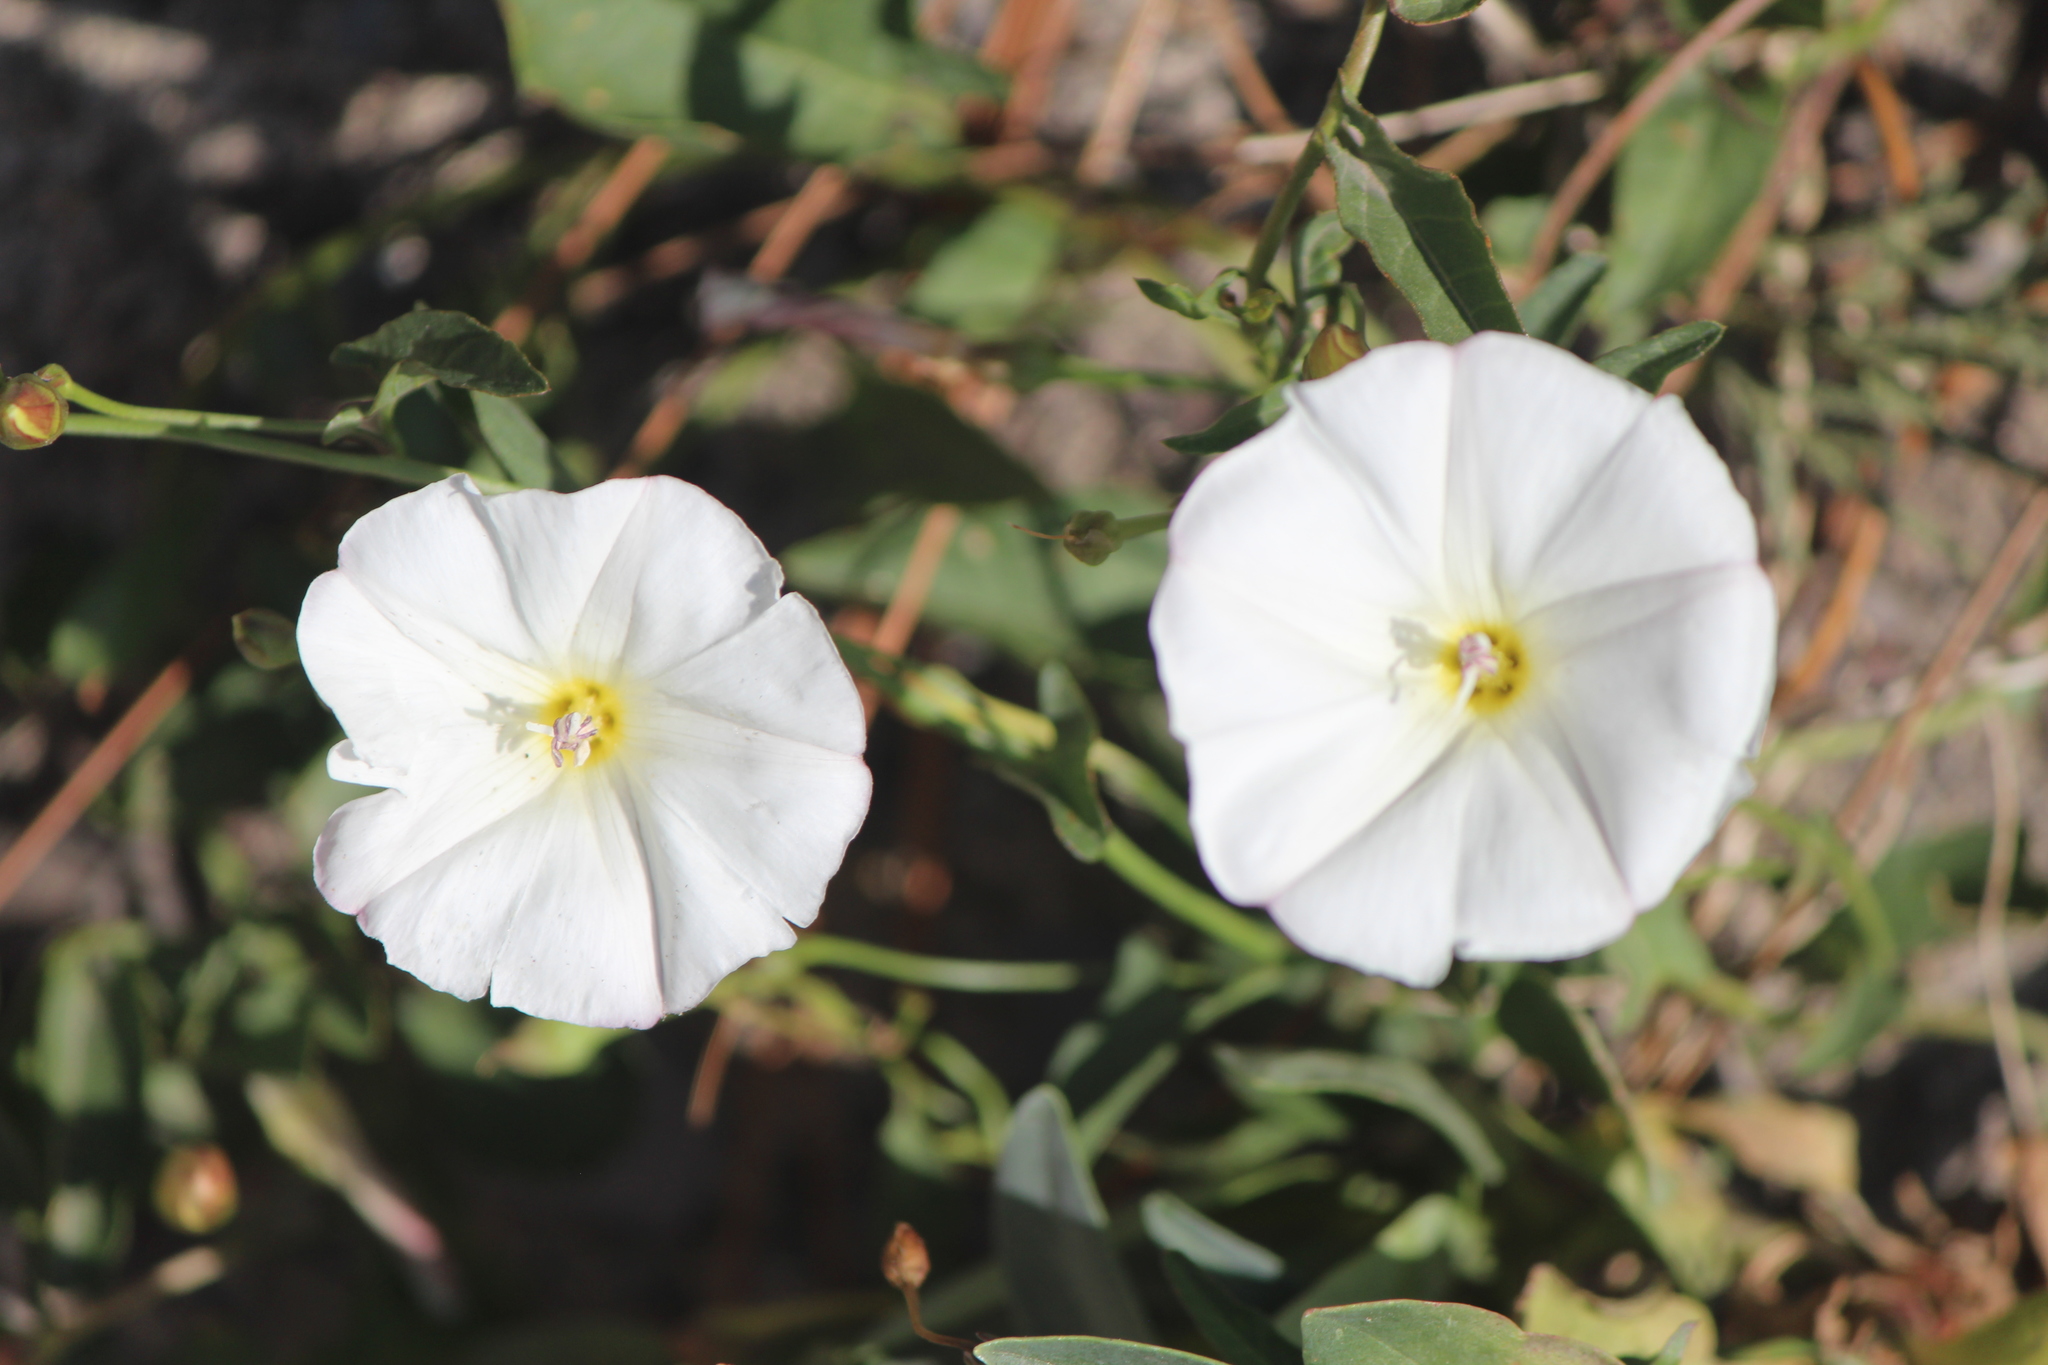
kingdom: Plantae
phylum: Tracheophyta
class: Magnoliopsida
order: Solanales
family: Convolvulaceae
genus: Convolvulus
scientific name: Convolvulus arvensis
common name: Field bindweed
